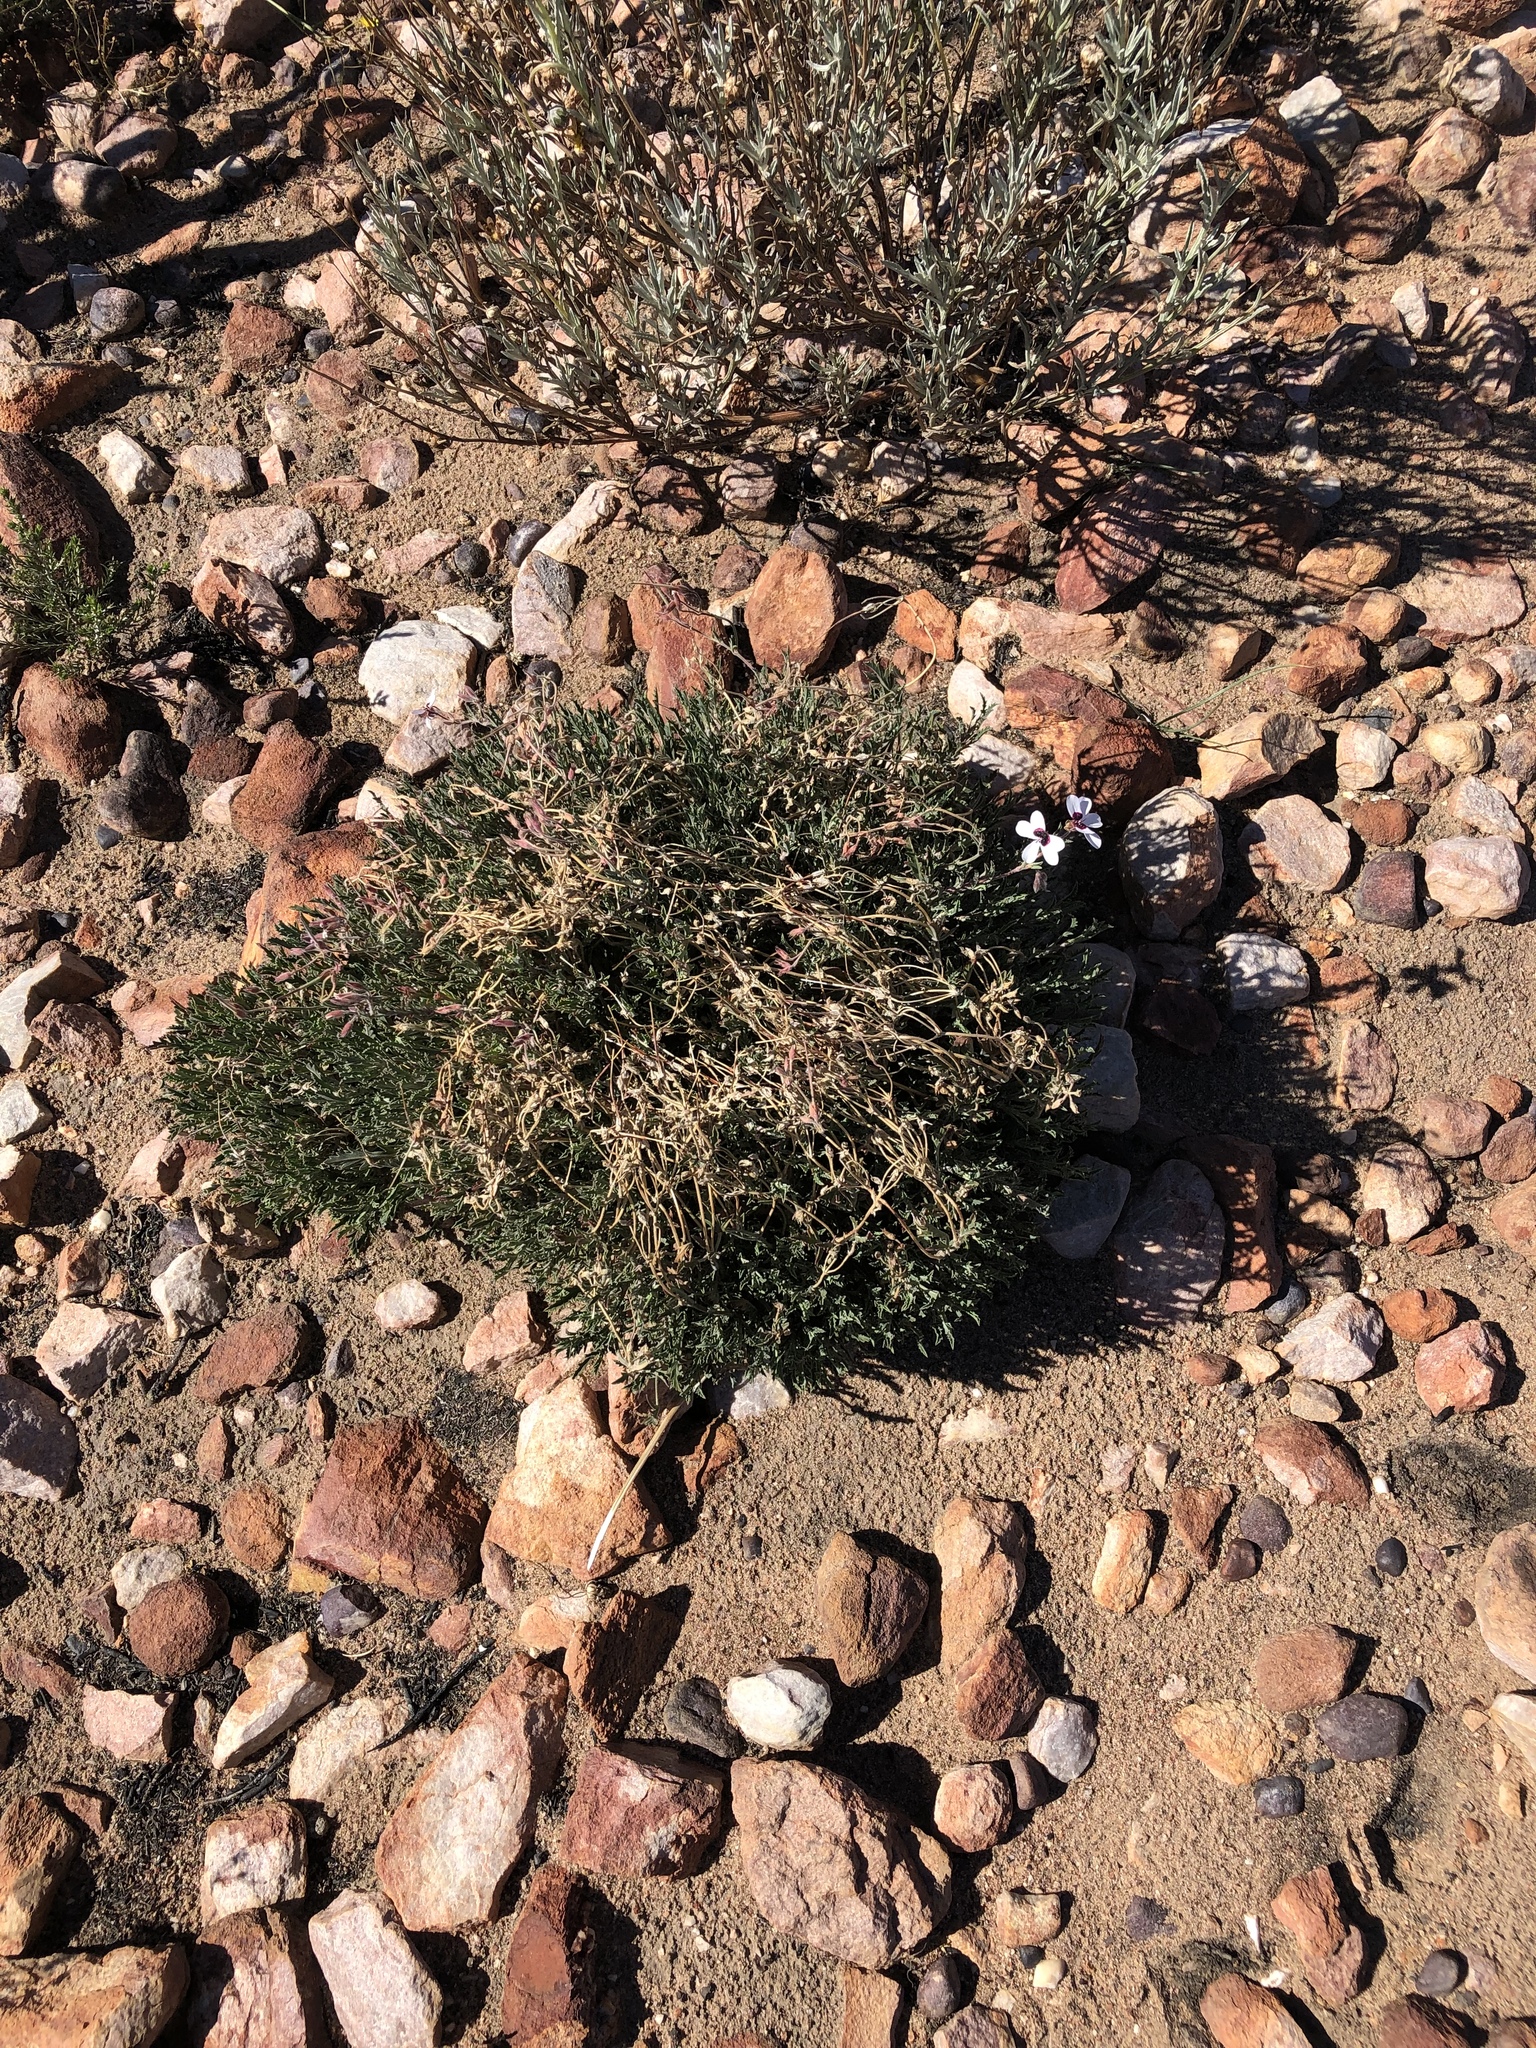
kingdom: Plantae
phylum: Tracheophyta
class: Magnoliopsida
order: Geraniales
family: Geraniaceae
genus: Pelargonium
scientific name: Pelargonium tricolor
